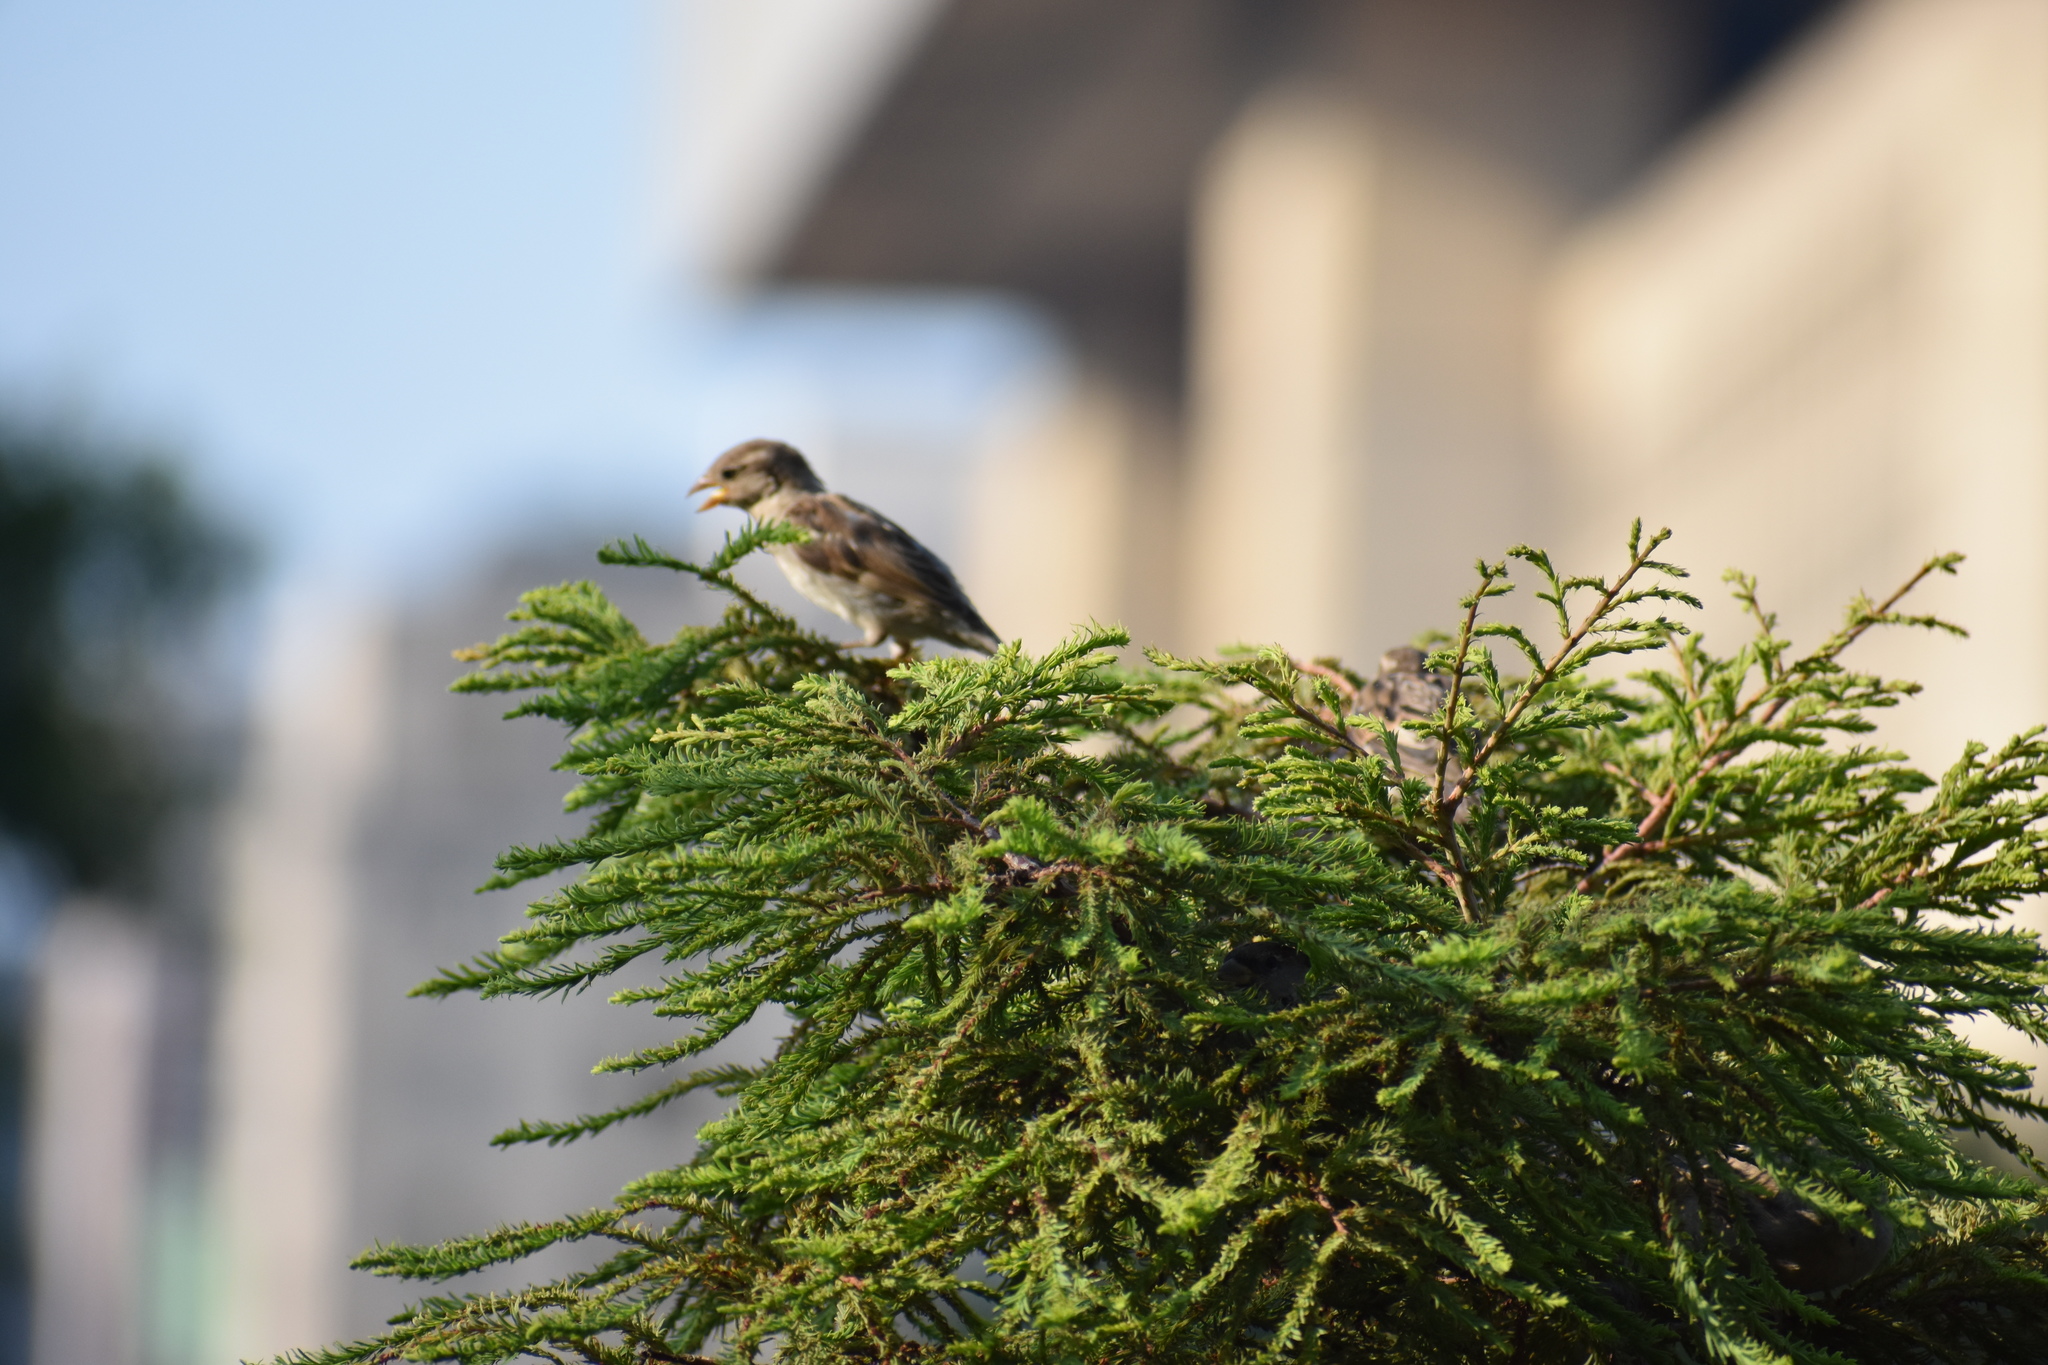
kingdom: Animalia
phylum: Chordata
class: Aves
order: Passeriformes
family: Passeridae
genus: Passer
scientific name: Passer domesticus
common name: House sparrow
